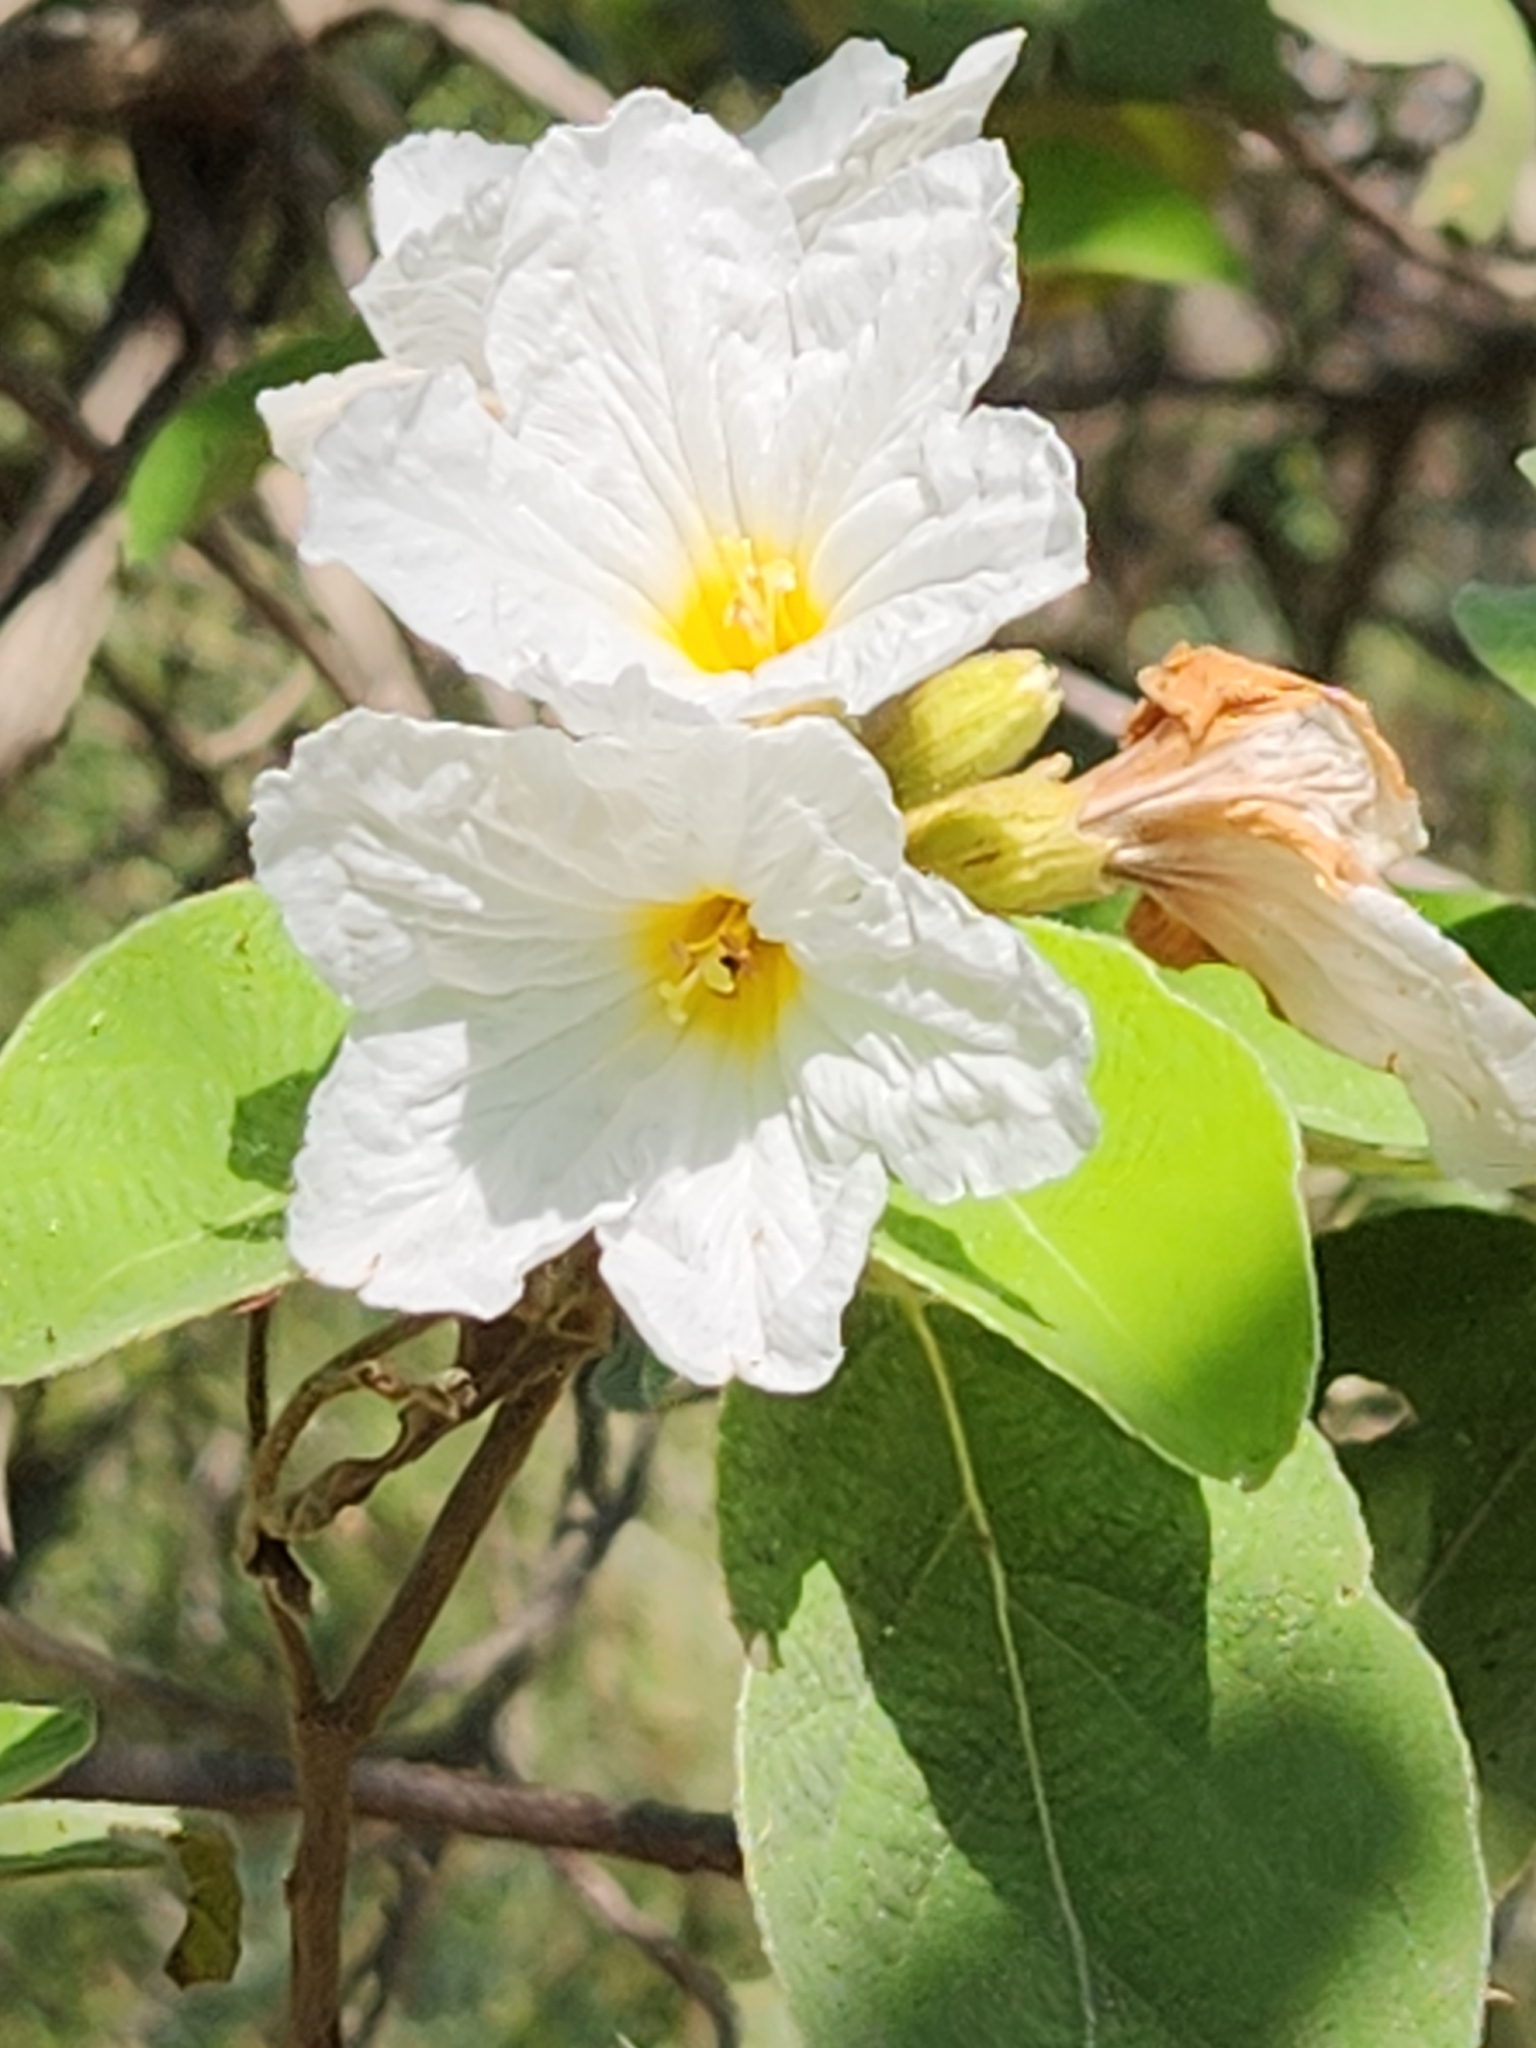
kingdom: Plantae
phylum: Tracheophyta
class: Magnoliopsida
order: Boraginales
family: Cordiaceae
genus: Cordia
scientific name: Cordia boissieri
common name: Mexican-olive
